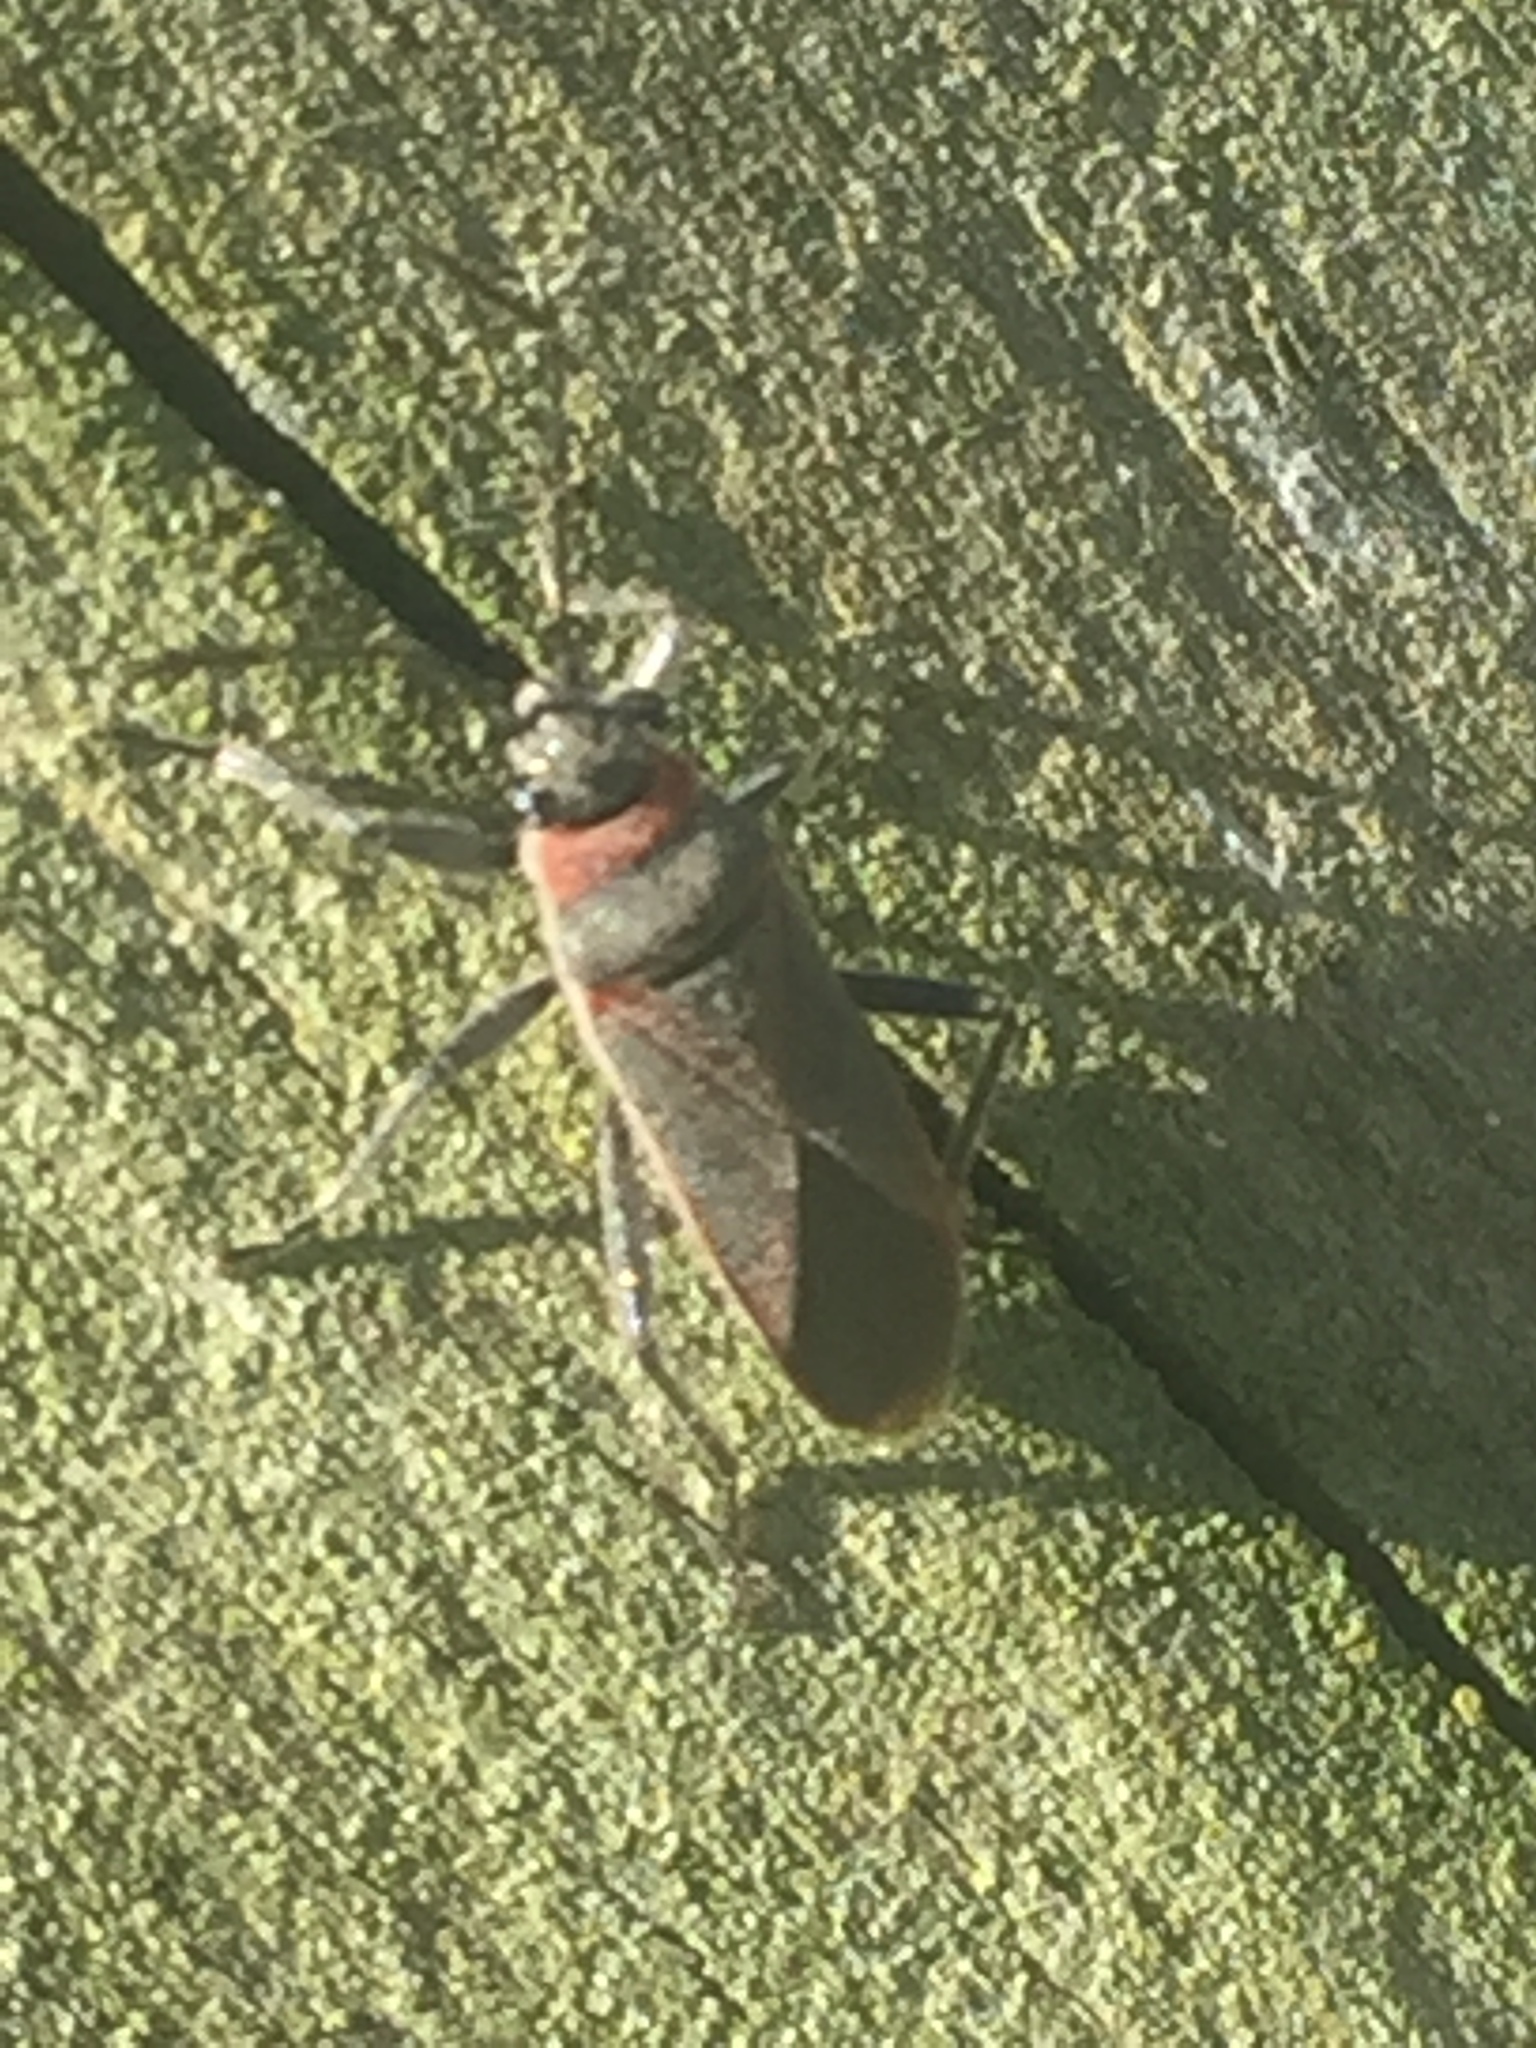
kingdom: Animalia
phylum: Arthropoda
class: Insecta
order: Hemiptera
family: Lygaeidae
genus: Arocatus
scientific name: Arocatus rusticus
